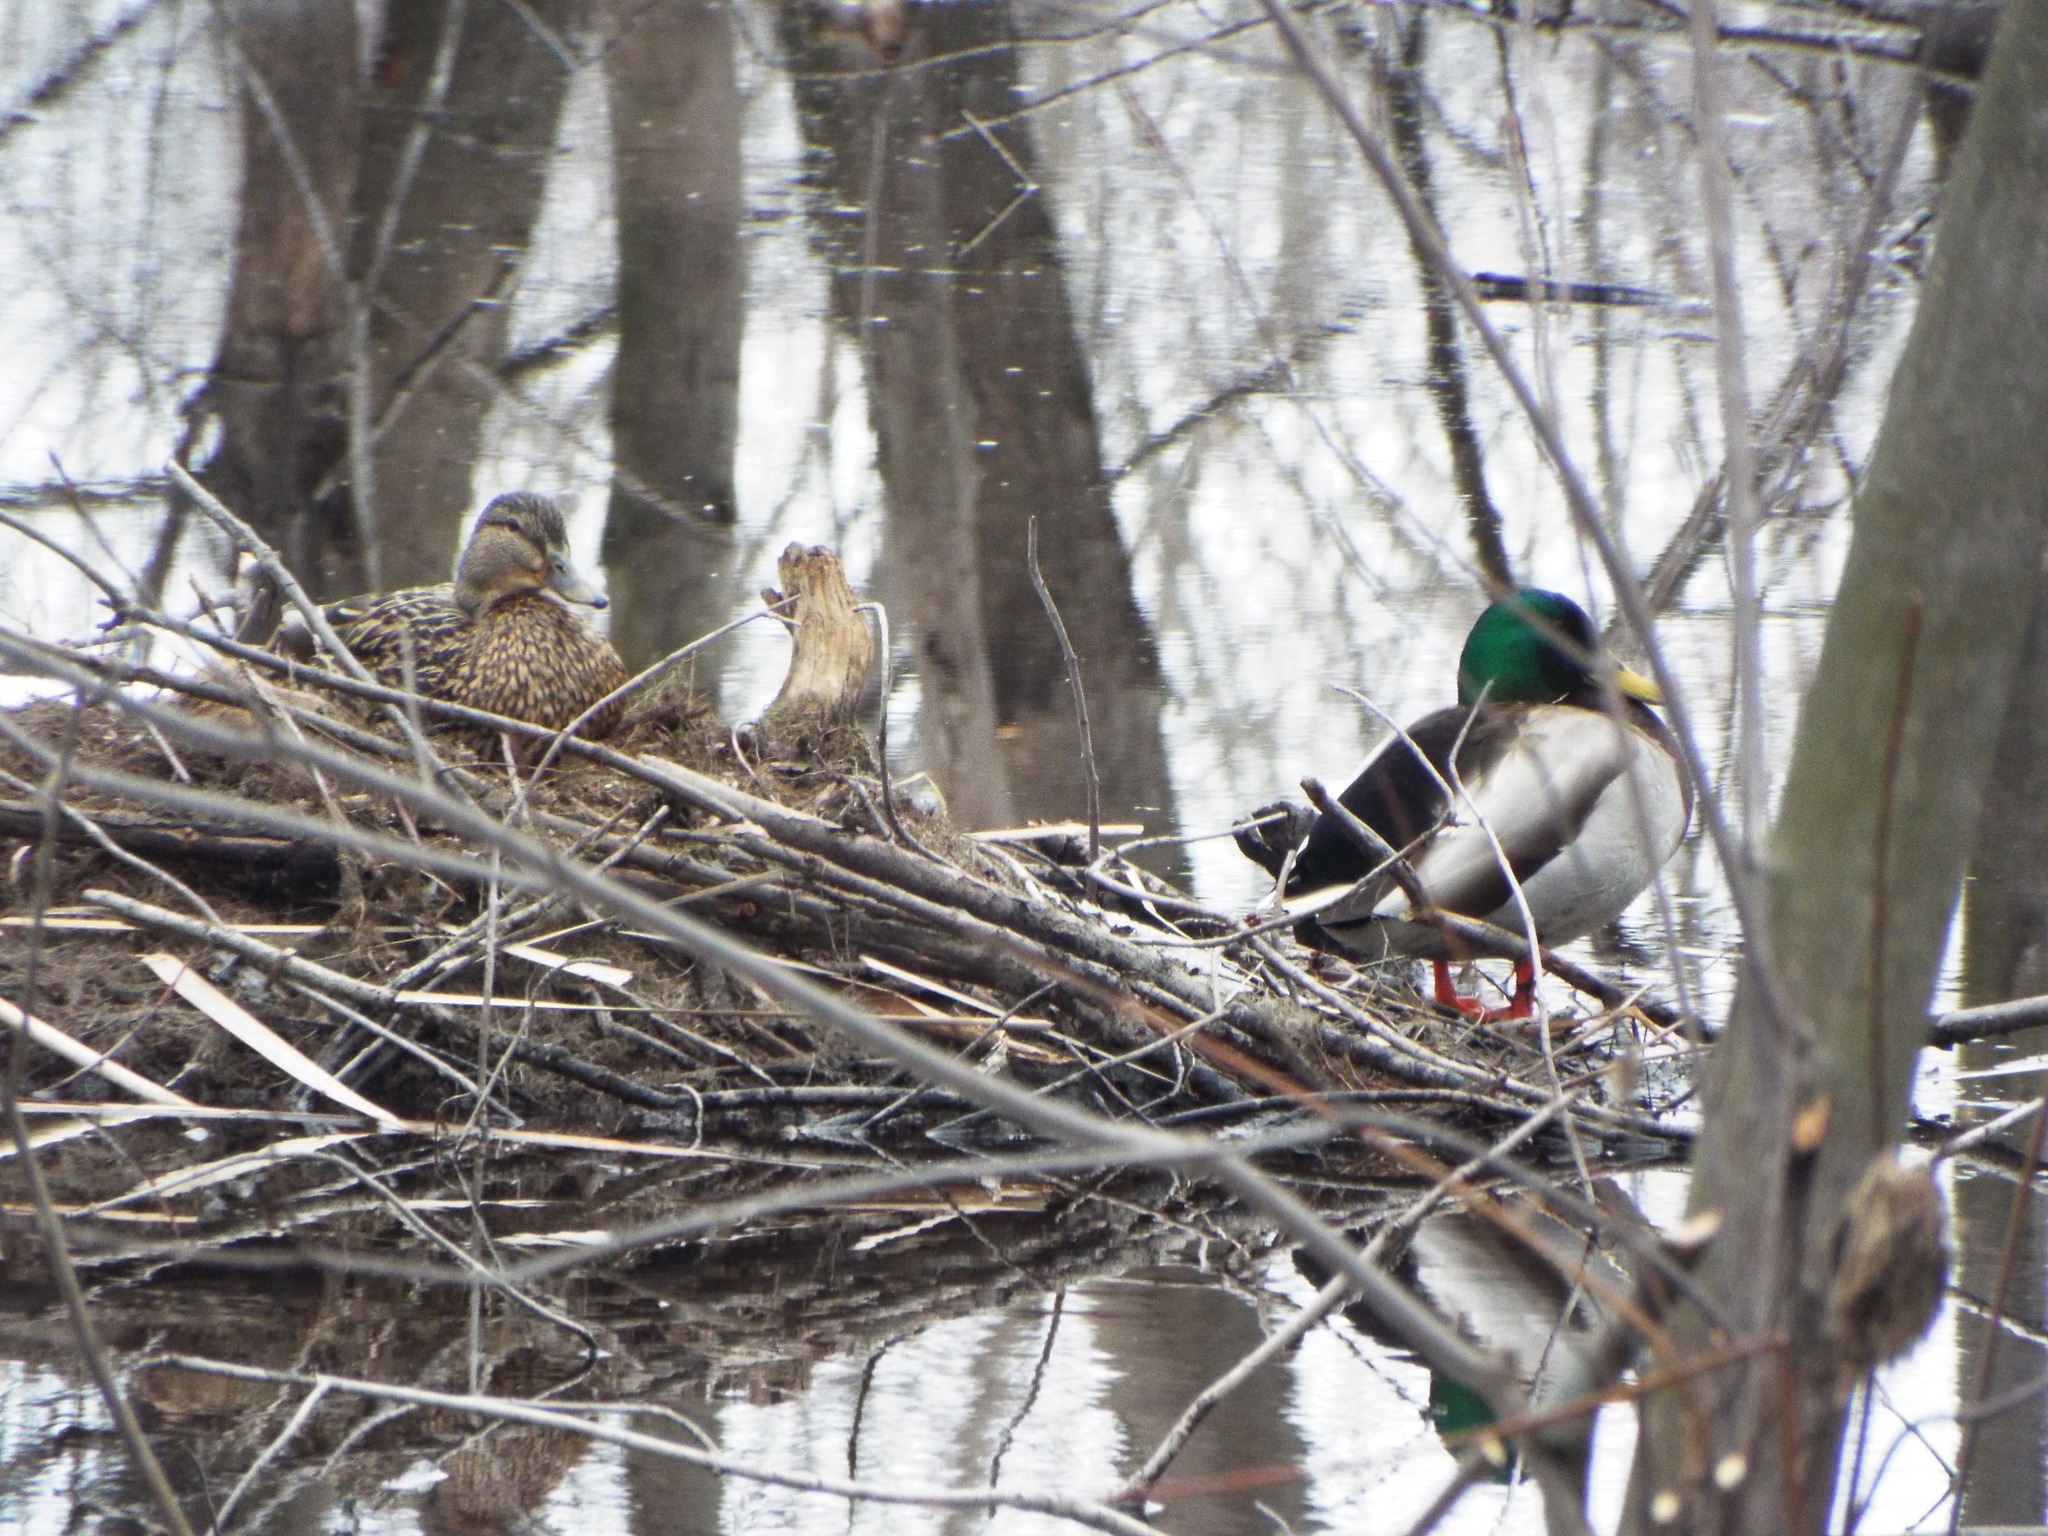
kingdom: Animalia
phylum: Chordata
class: Aves
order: Anseriformes
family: Anatidae
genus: Anas
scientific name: Anas platyrhynchos
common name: Mallard
